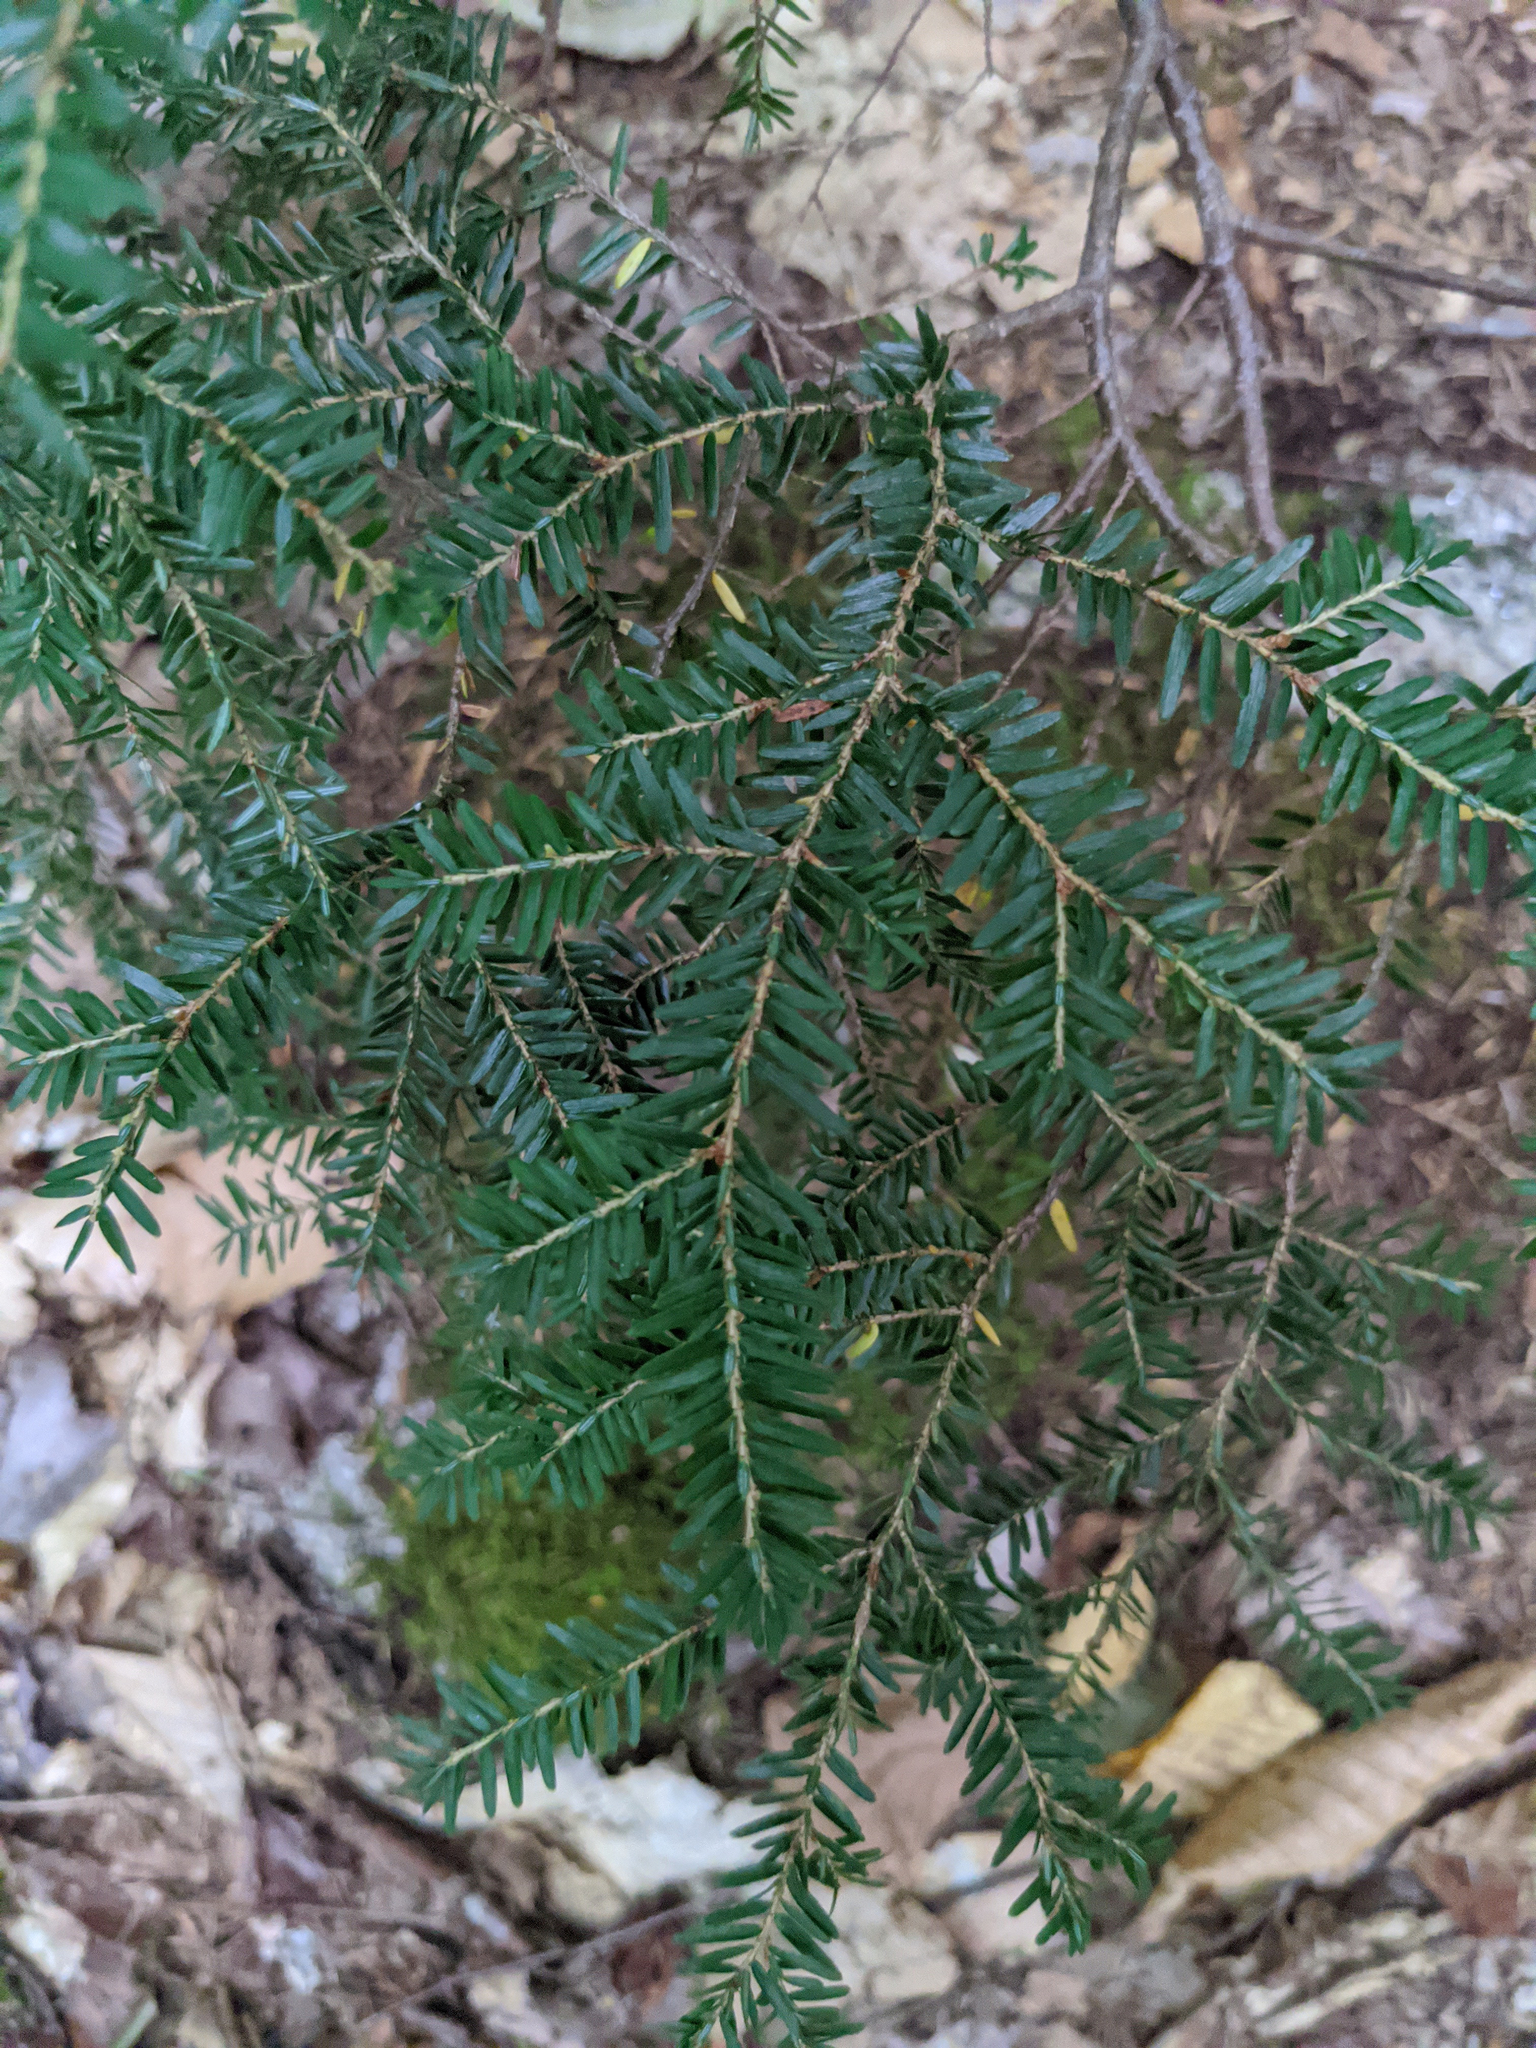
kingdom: Plantae
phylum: Tracheophyta
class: Pinopsida
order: Pinales
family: Pinaceae
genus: Tsuga
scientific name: Tsuga canadensis
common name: Eastern hemlock
